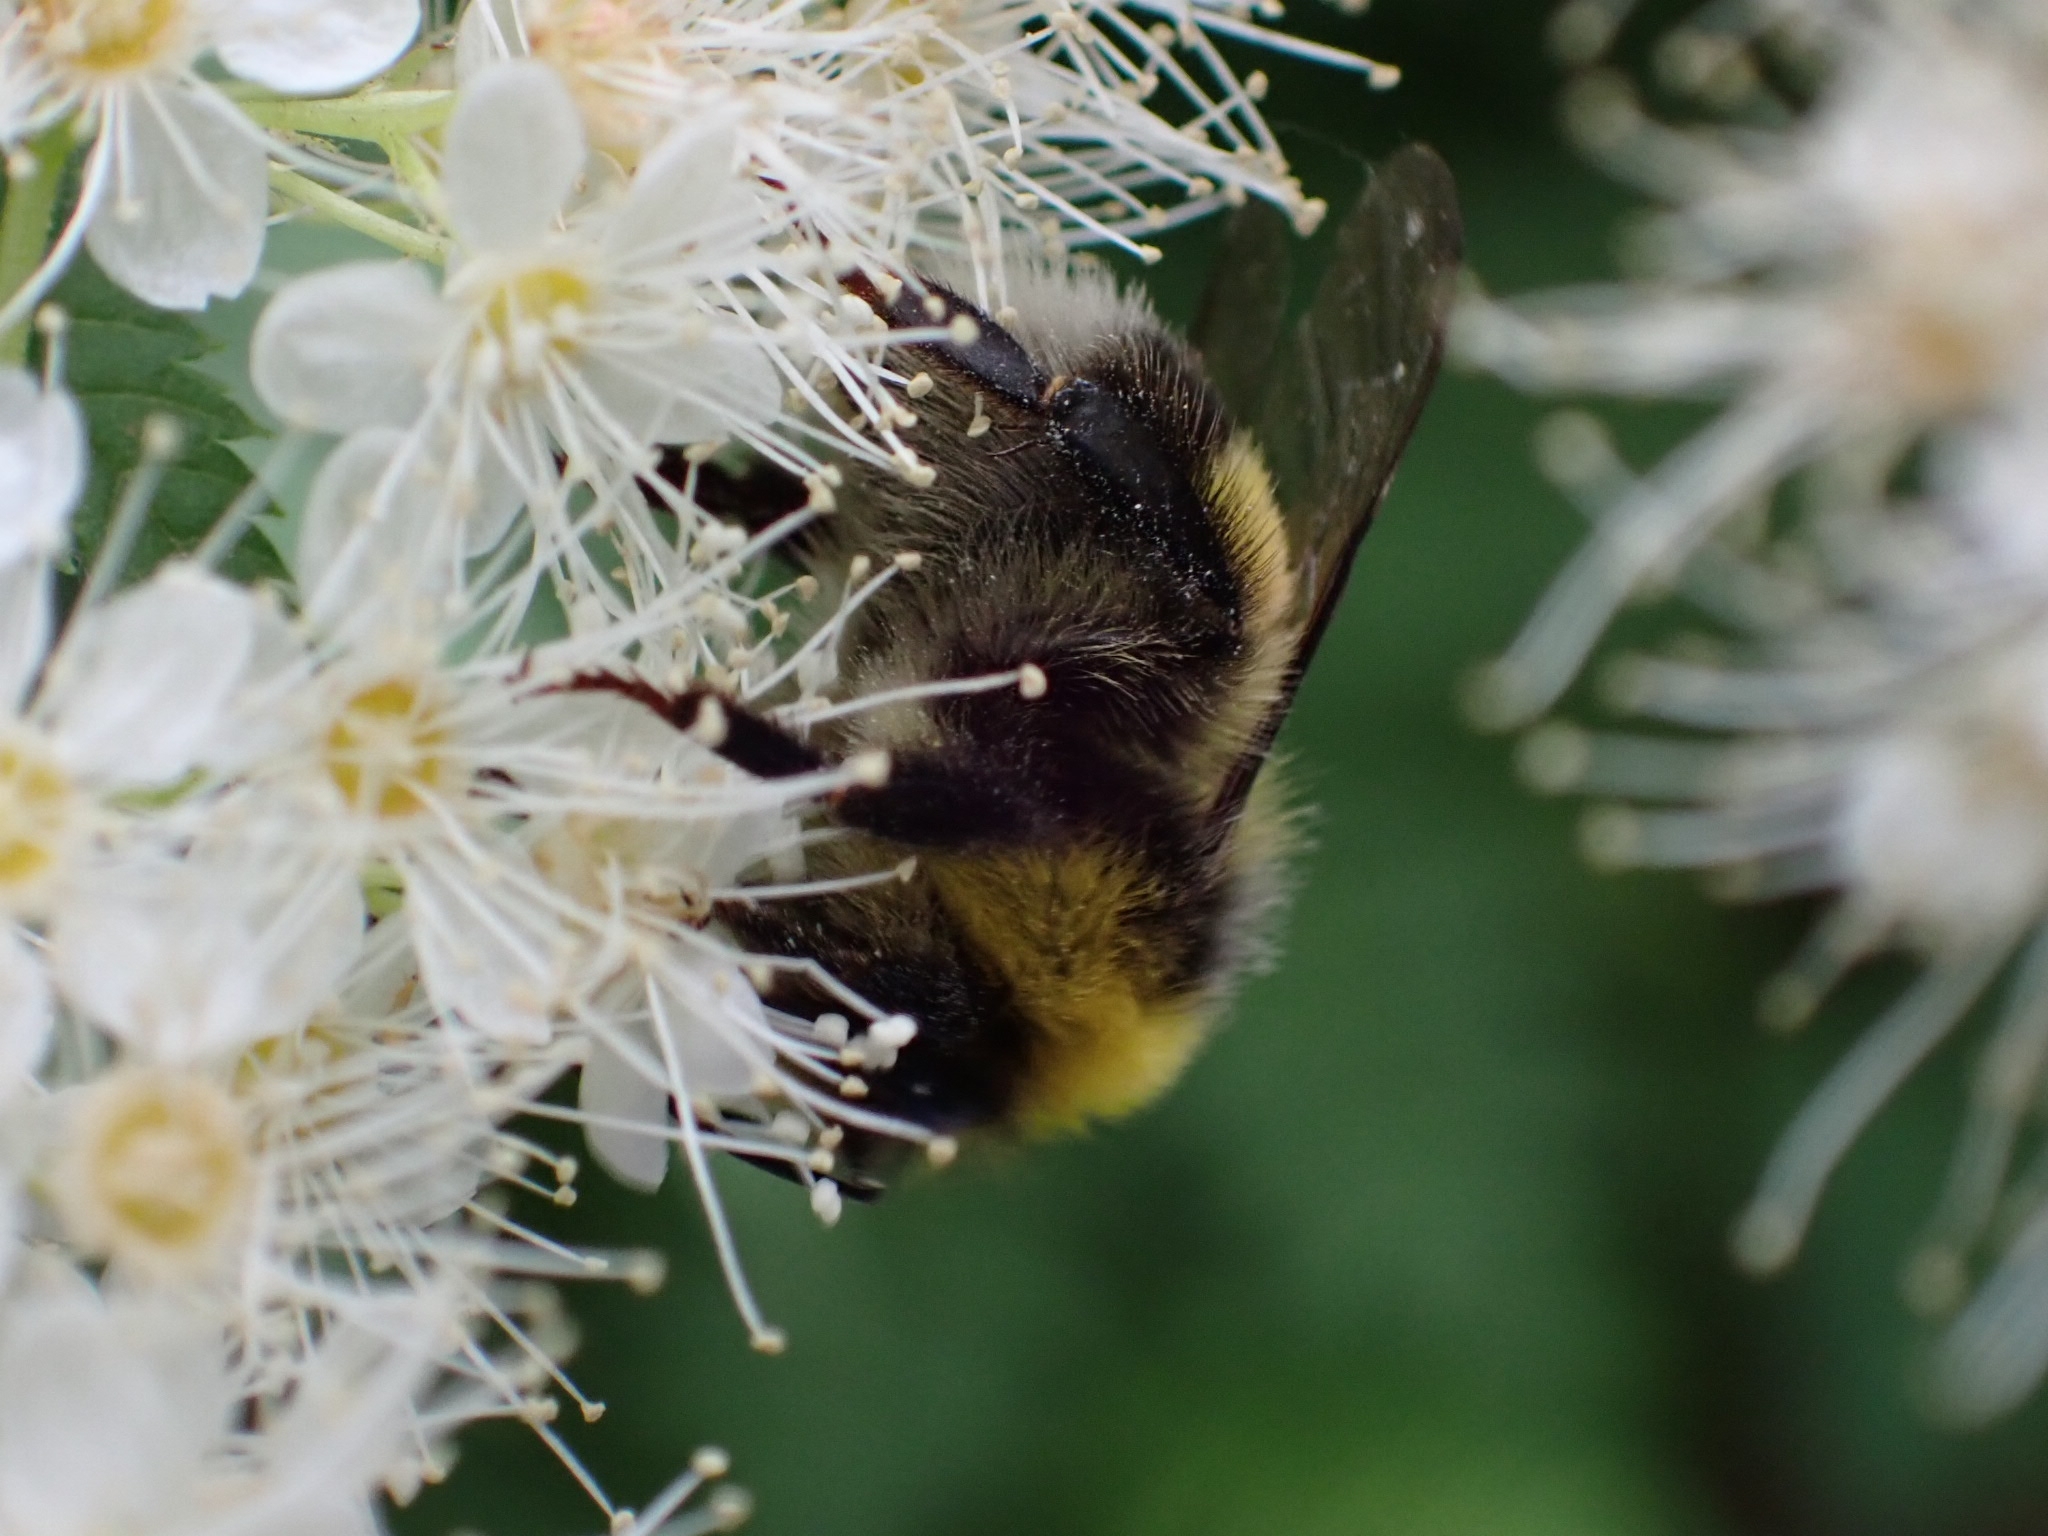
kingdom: Animalia
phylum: Arthropoda
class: Insecta
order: Hymenoptera
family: Apidae
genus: Bombus
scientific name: Bombus lucorum
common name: White-tailed bumblebee
